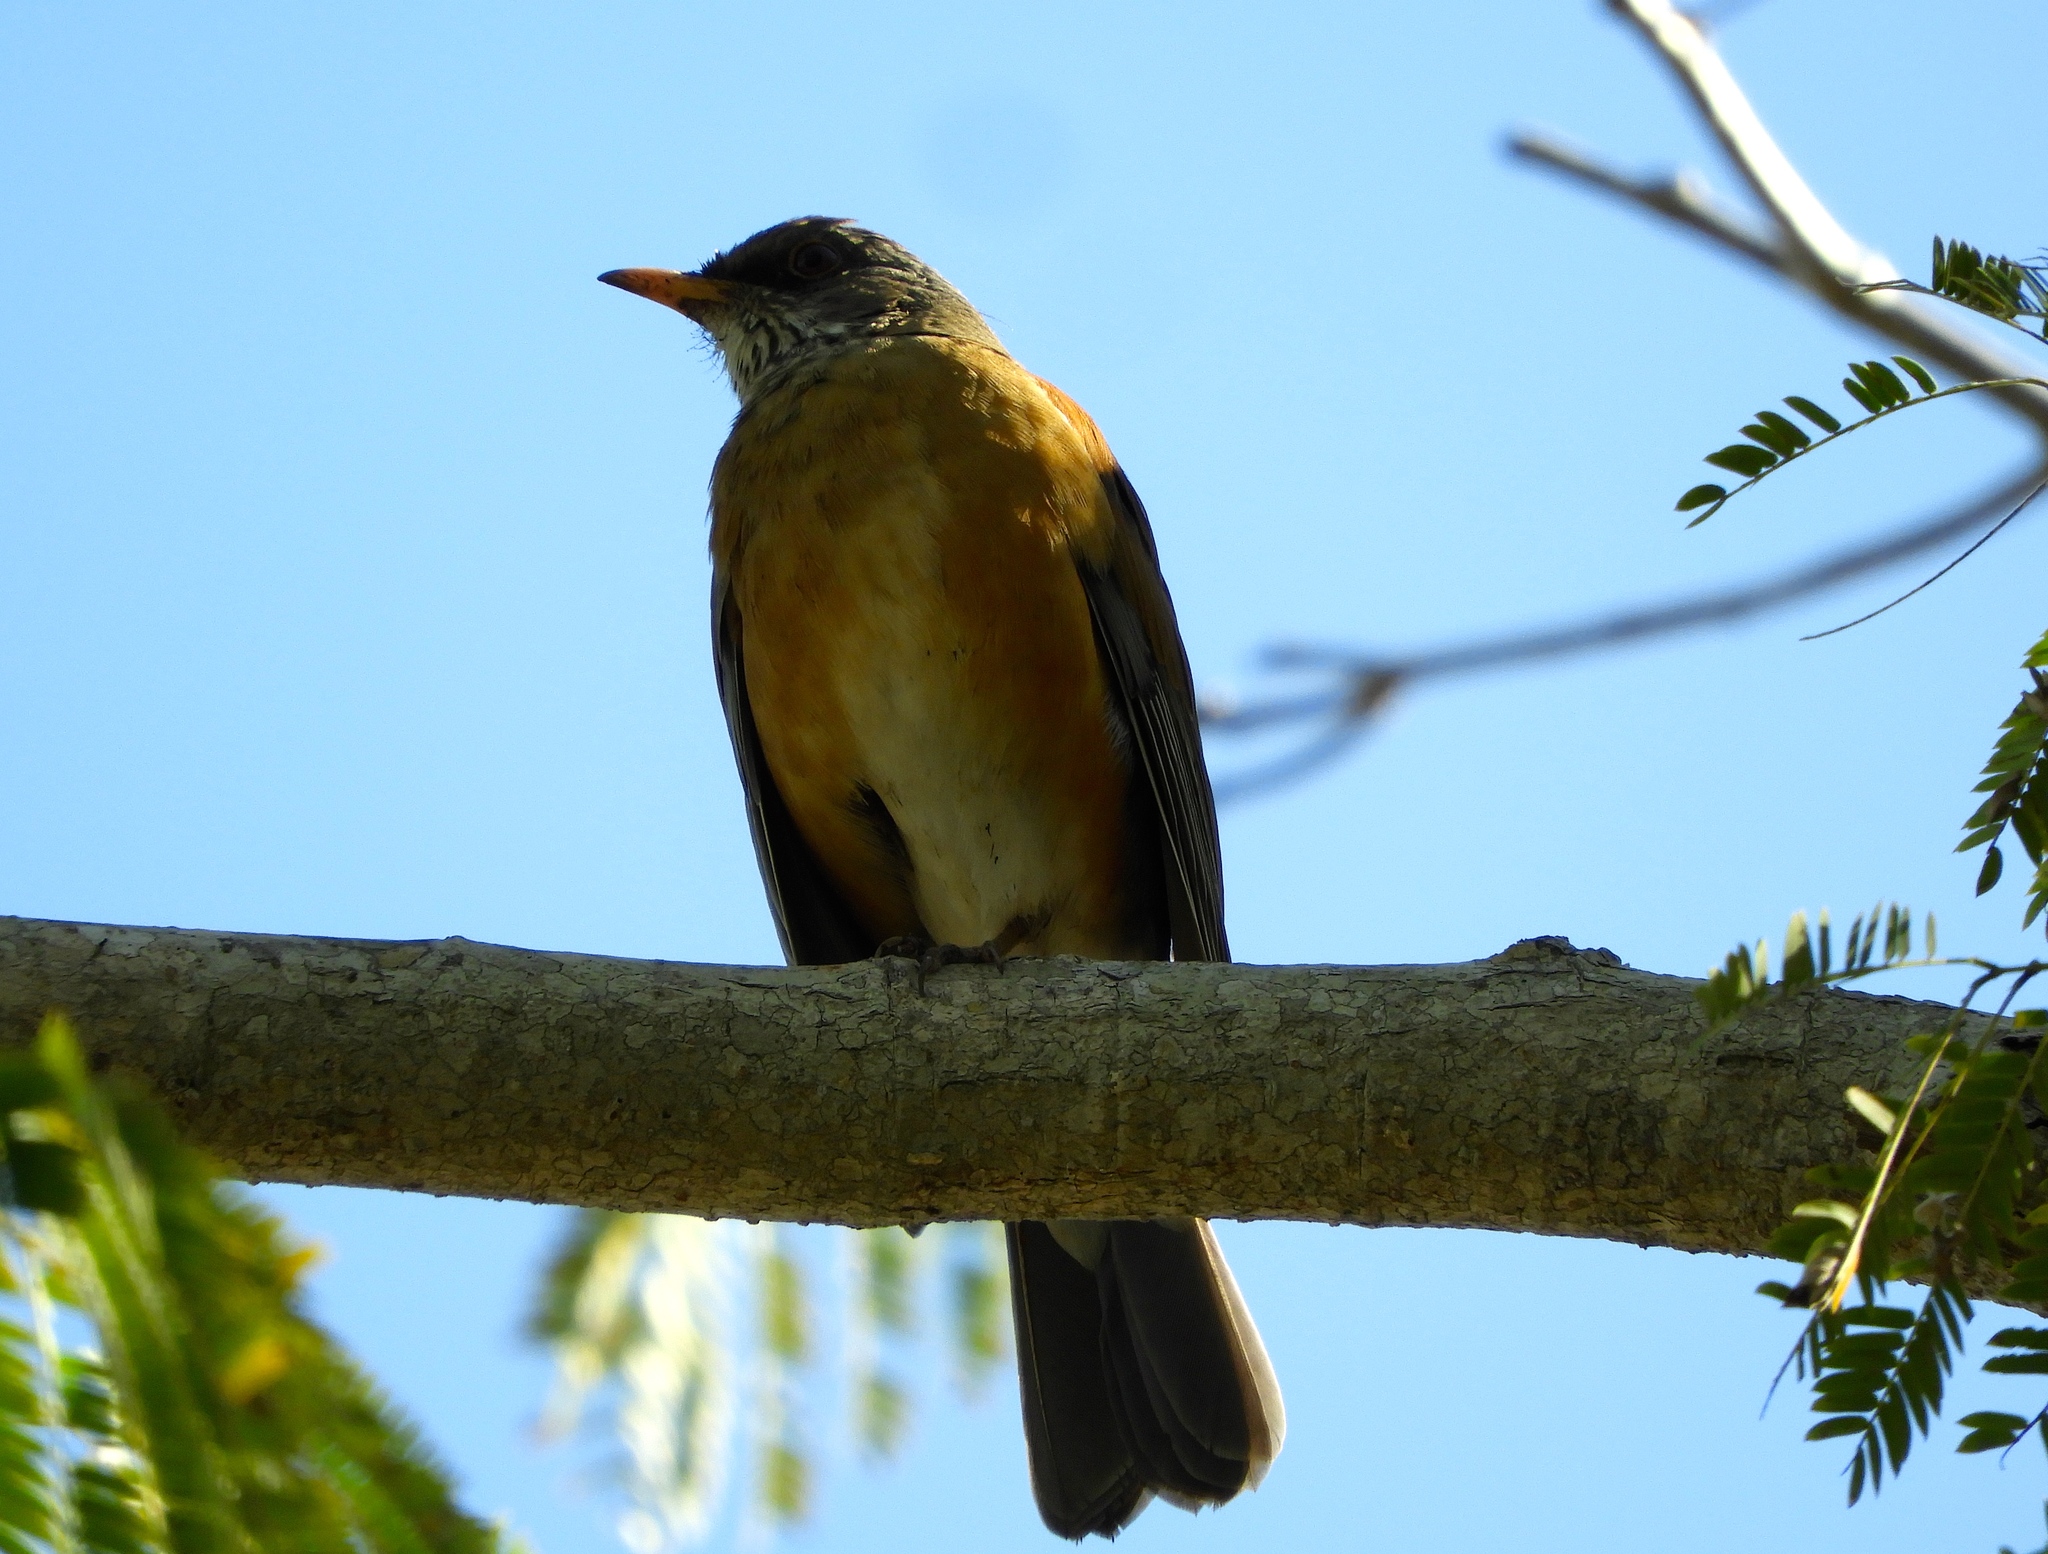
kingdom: Animalia
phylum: Chordata
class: Aves
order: Passeriformes
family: Turdidae
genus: Turdus
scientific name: Turdus rufopalliatus
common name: Rufous-backed robin
